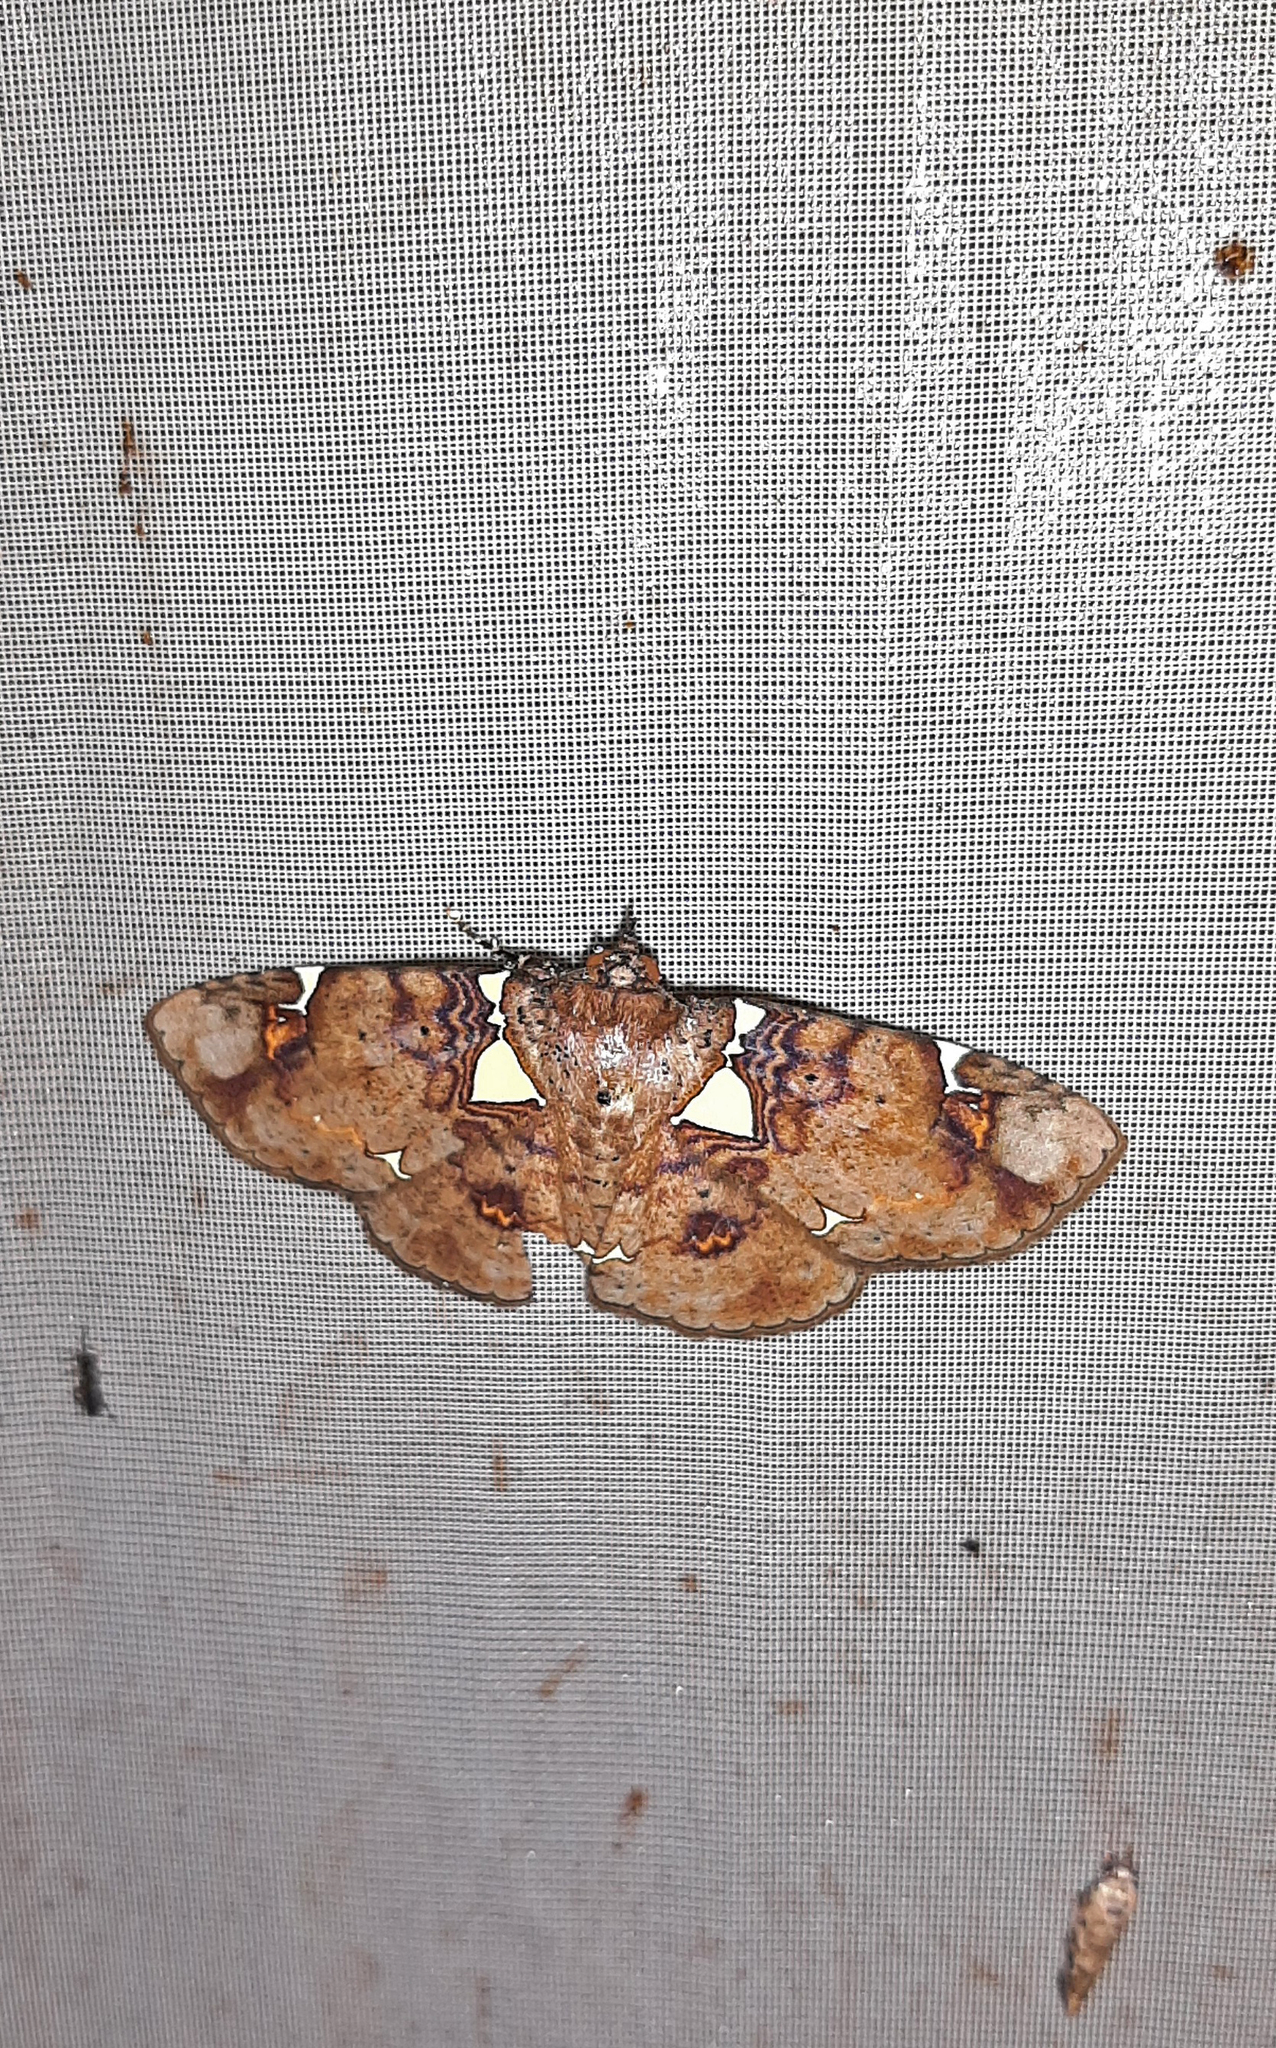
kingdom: Animalia
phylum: Arthropoda
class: Insecta
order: Lepidoptera
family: Erebidae
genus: Antiblemma
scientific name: Antiblemma albipunctata
